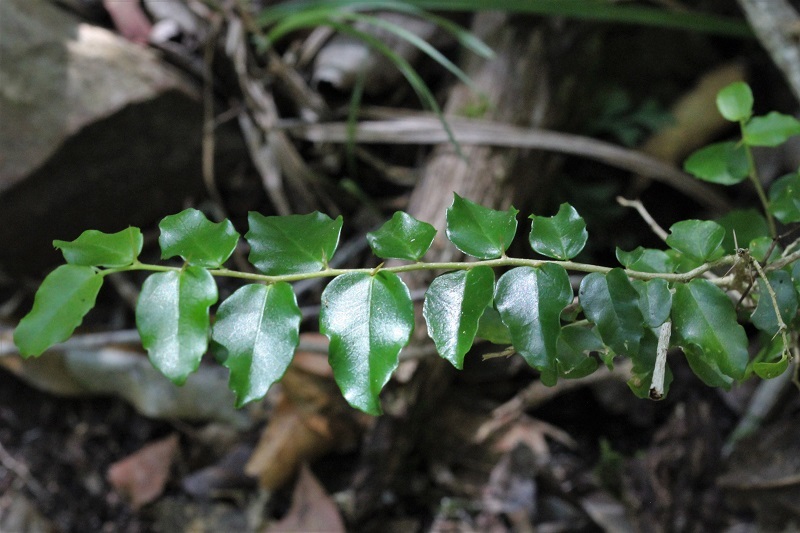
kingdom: Plantae
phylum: Tracheophyta
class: Magnoliopsida
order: Malpighiales
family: Salicaceae
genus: Dovyalis
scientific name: Dovyalis rhamnoides
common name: Sourberry
